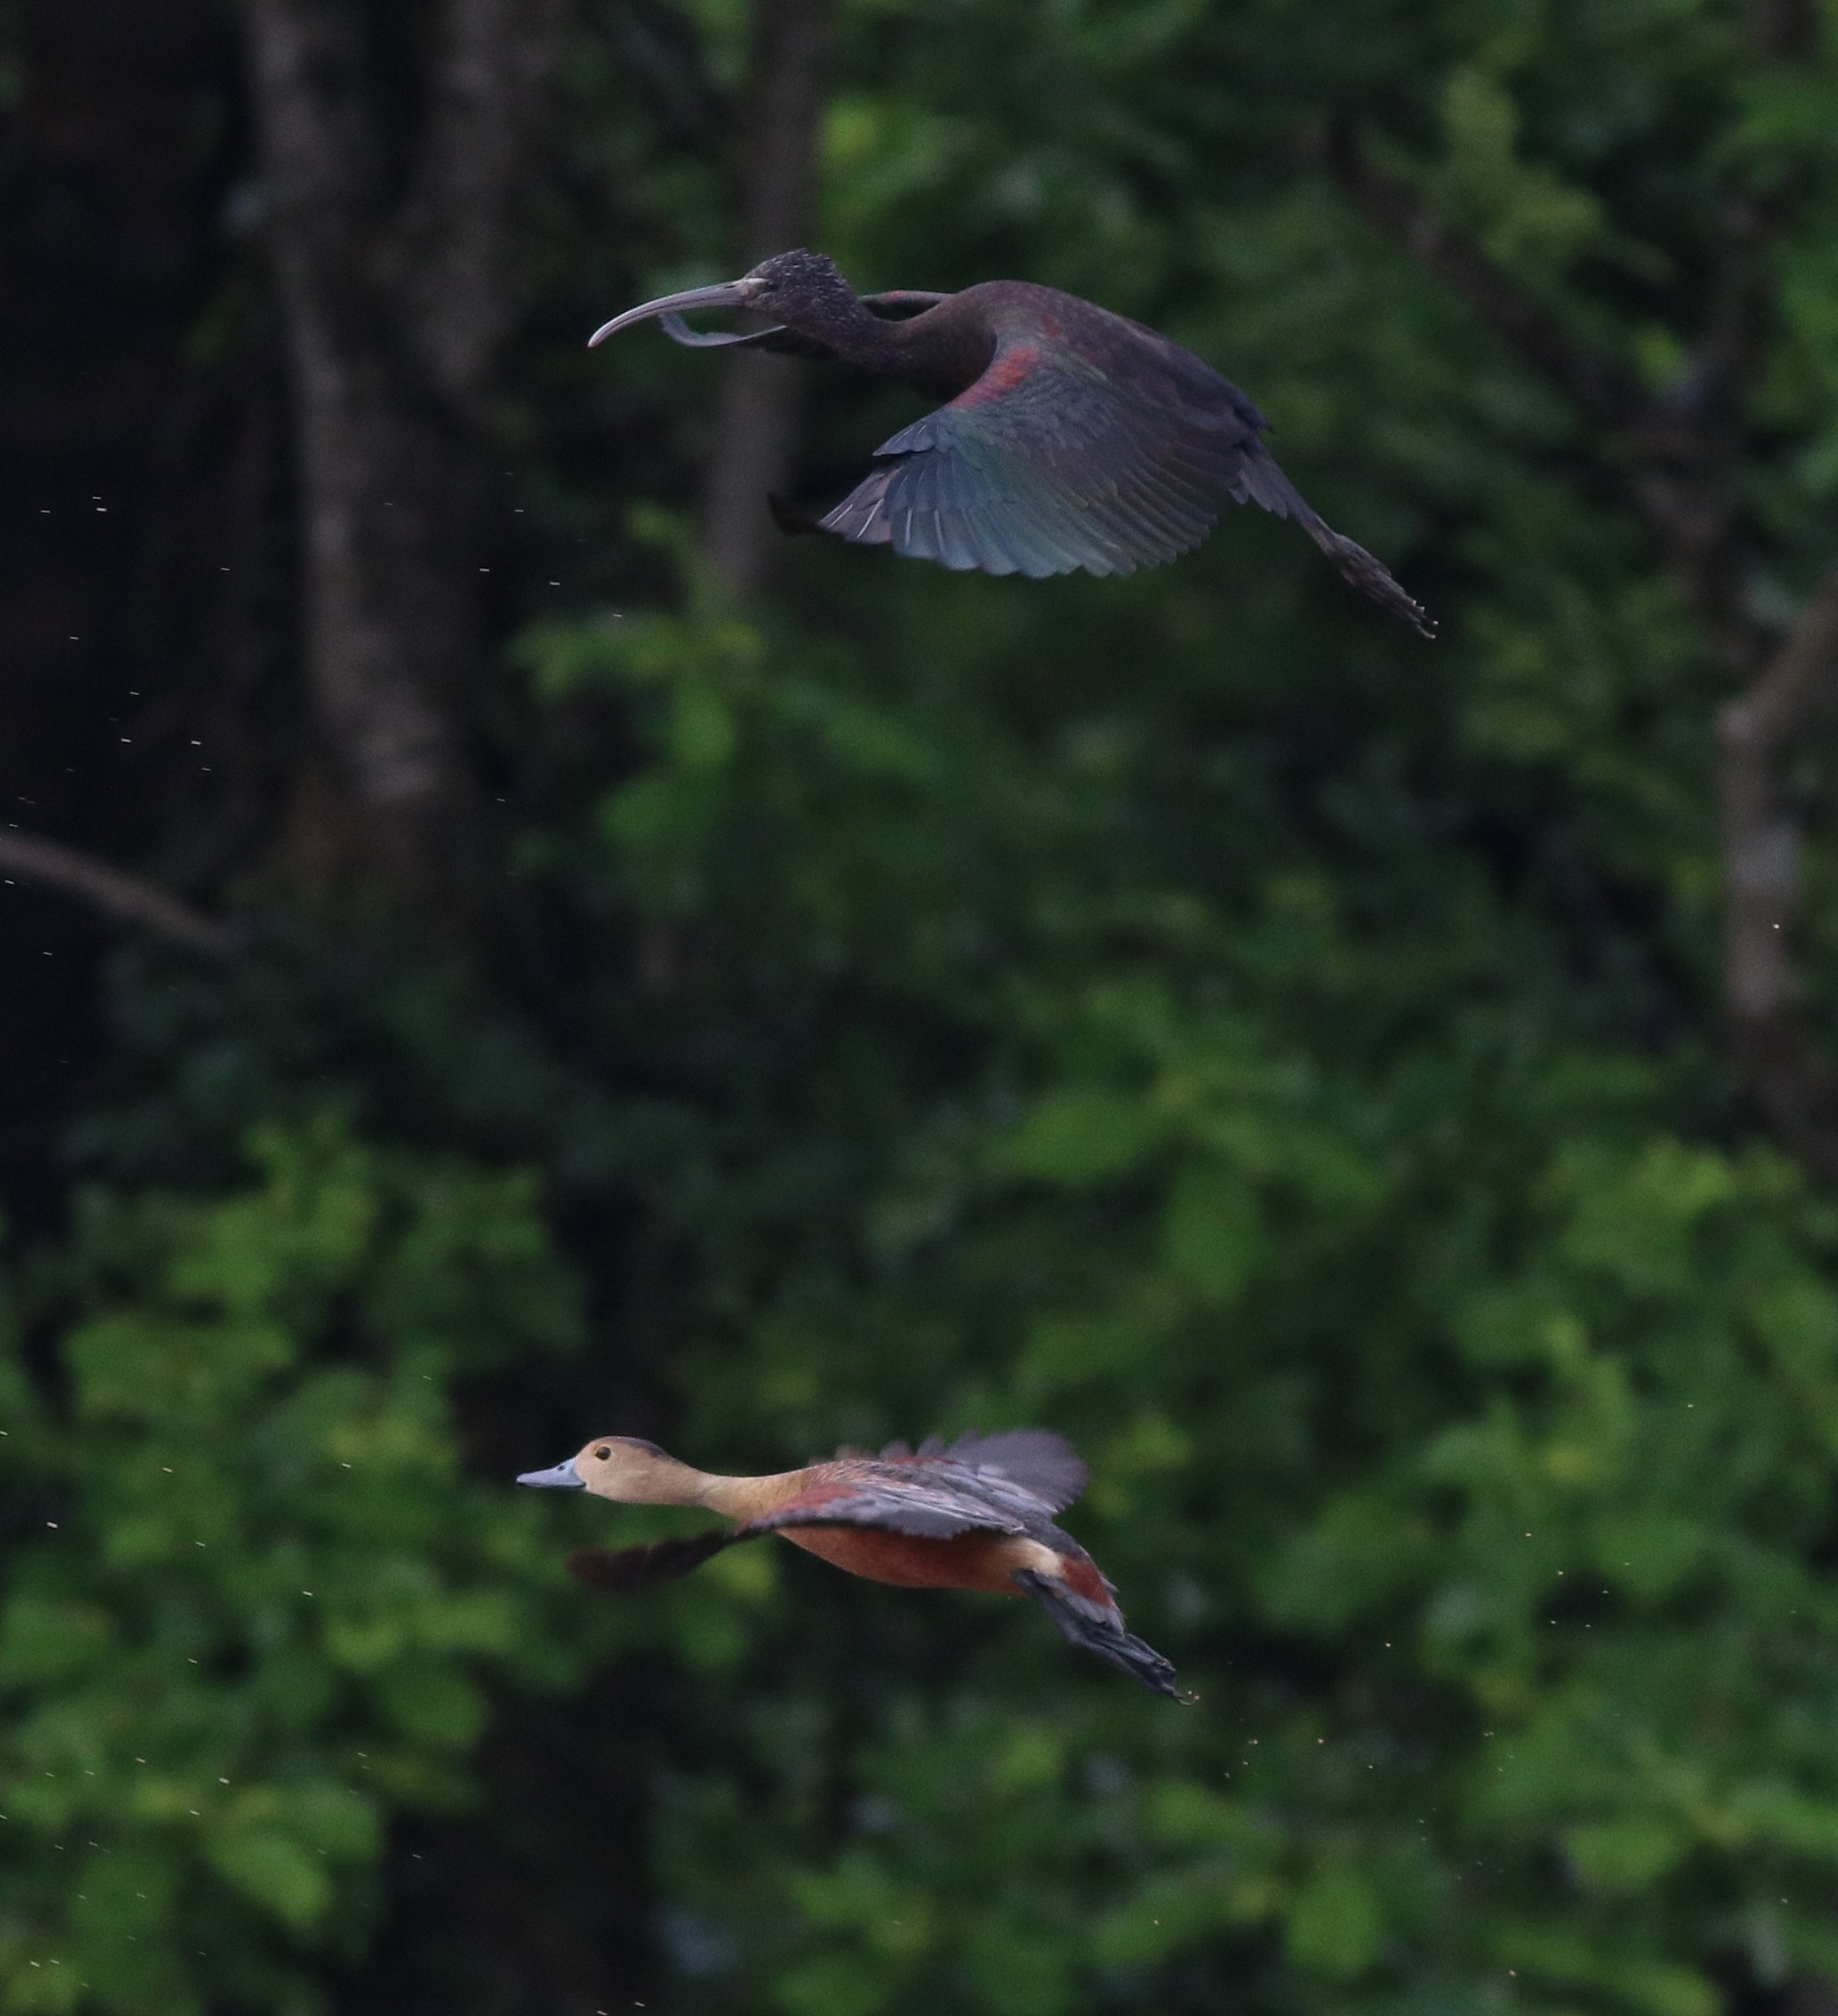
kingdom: Animalia
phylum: Chordata
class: Aves
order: Pelecaniformes
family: Threskiornithidae
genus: Plegadis
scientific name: Plegadis falcinellus
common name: Glossy ibis
